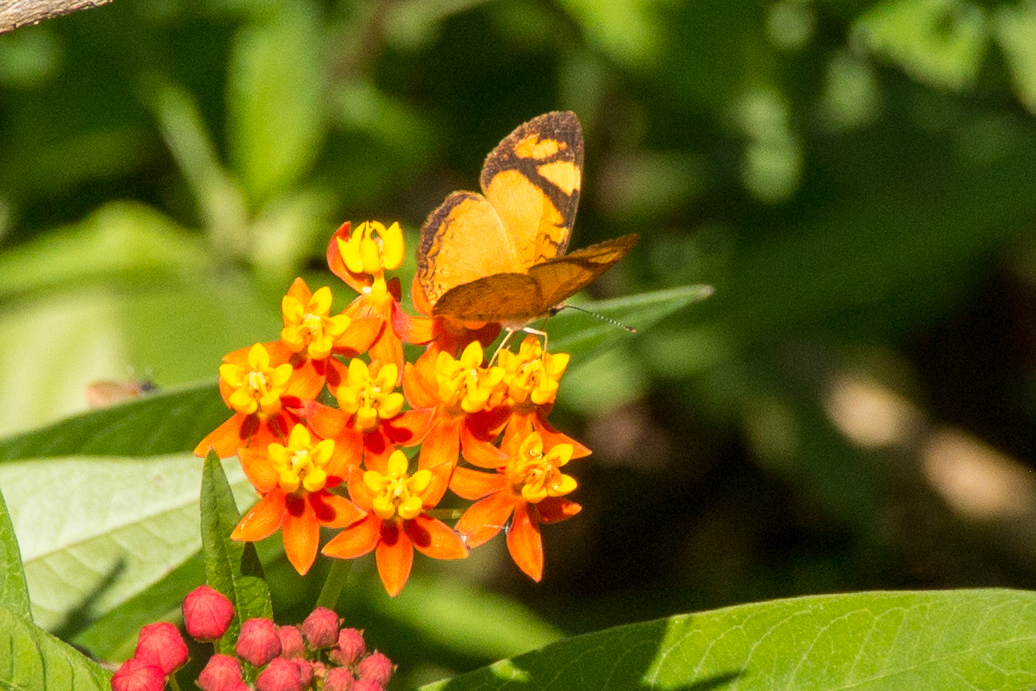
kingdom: Animalia
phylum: Arthropoda
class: Insecta
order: Lepidoptera
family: Nymphalidae
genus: Tegosa
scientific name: Tegosa claudina
